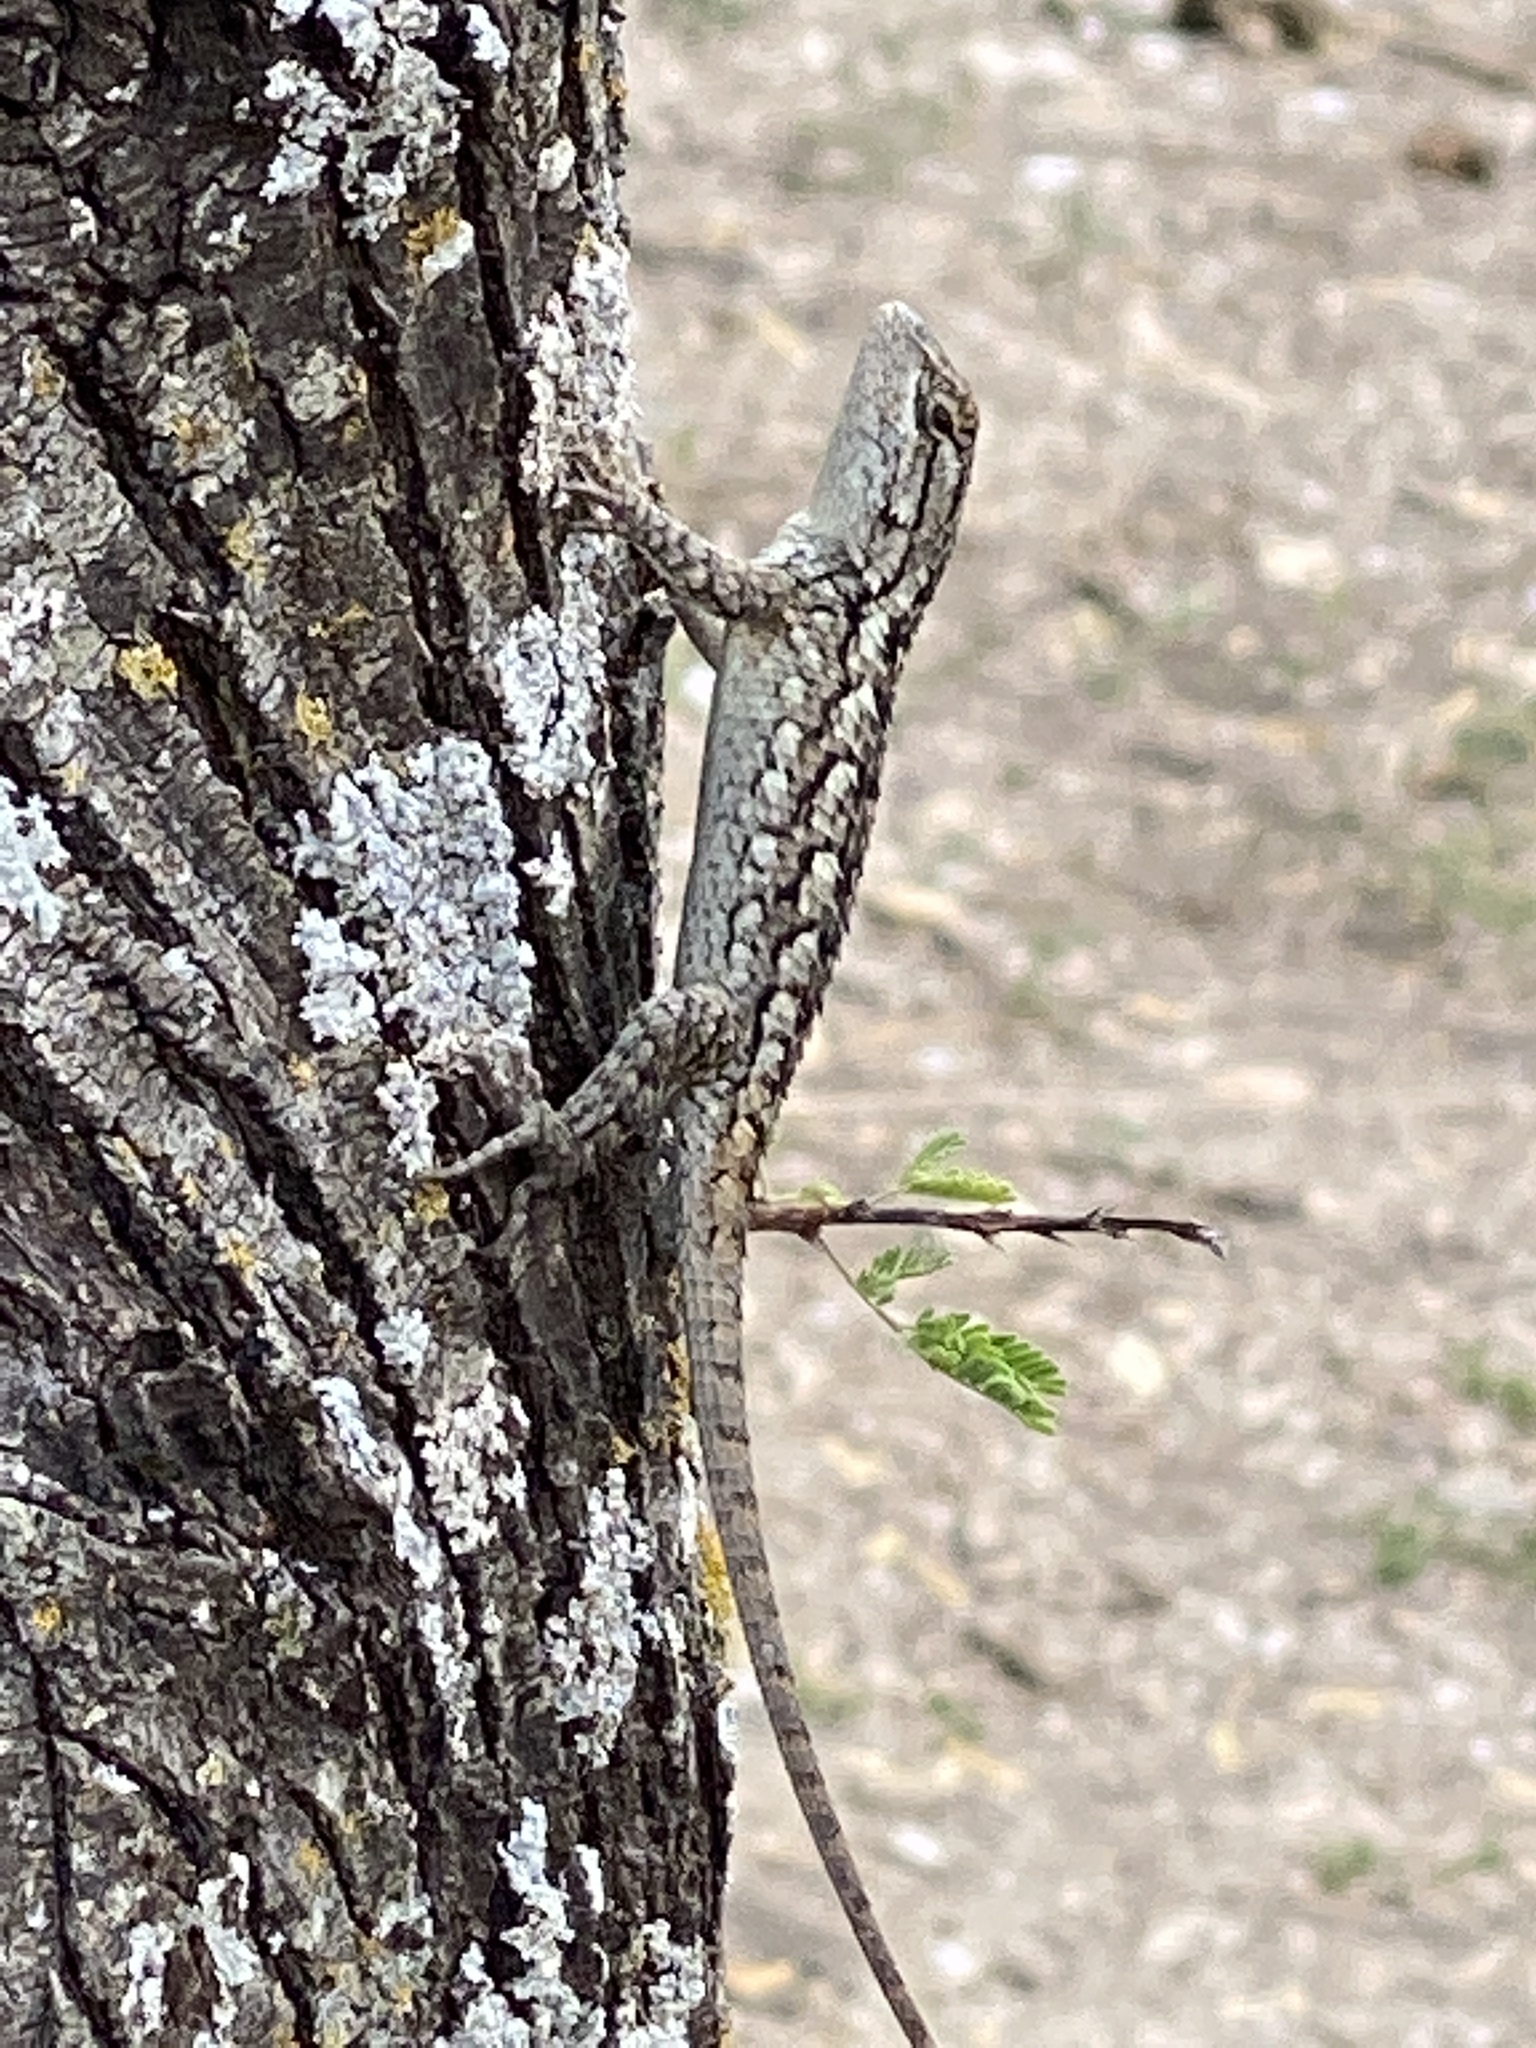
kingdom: Animalia
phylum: Chordata
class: Squamata
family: Phrynosomatidae
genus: Sceloporus
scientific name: Sceloporus olivaceus
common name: Texas spiny lizard
